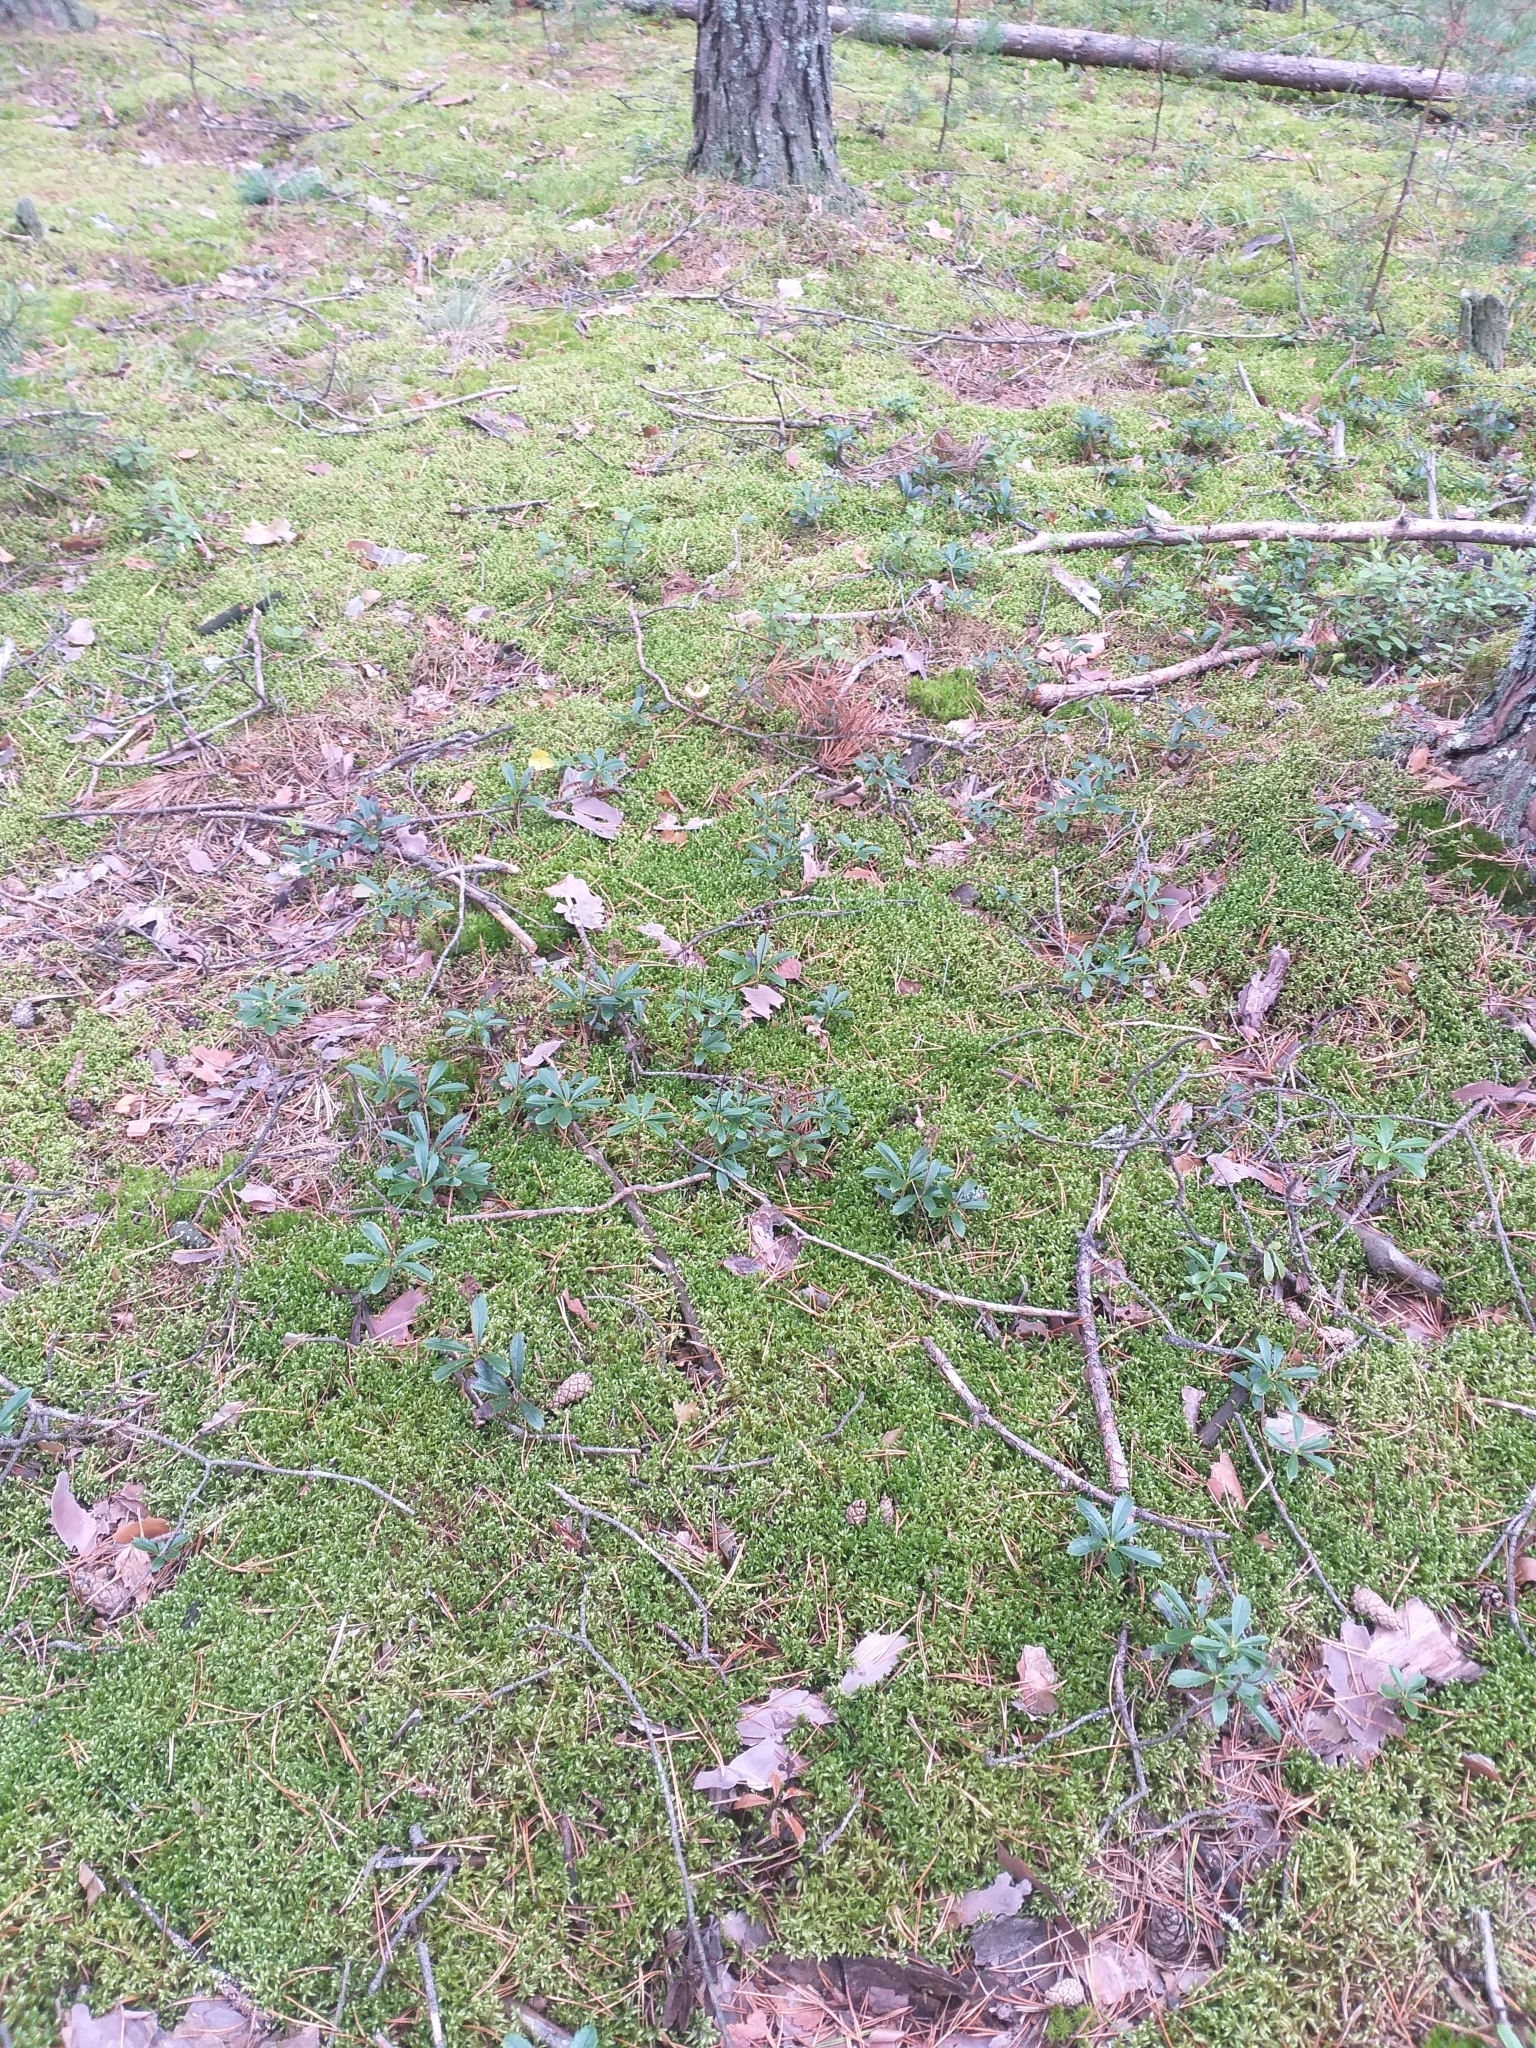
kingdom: Plantae
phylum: Tracheophyta
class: Magnoliopsida
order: Ericales
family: Ericaceae
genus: Chimaphila
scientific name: Chimaphila umbellata
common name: Pipsissewa
